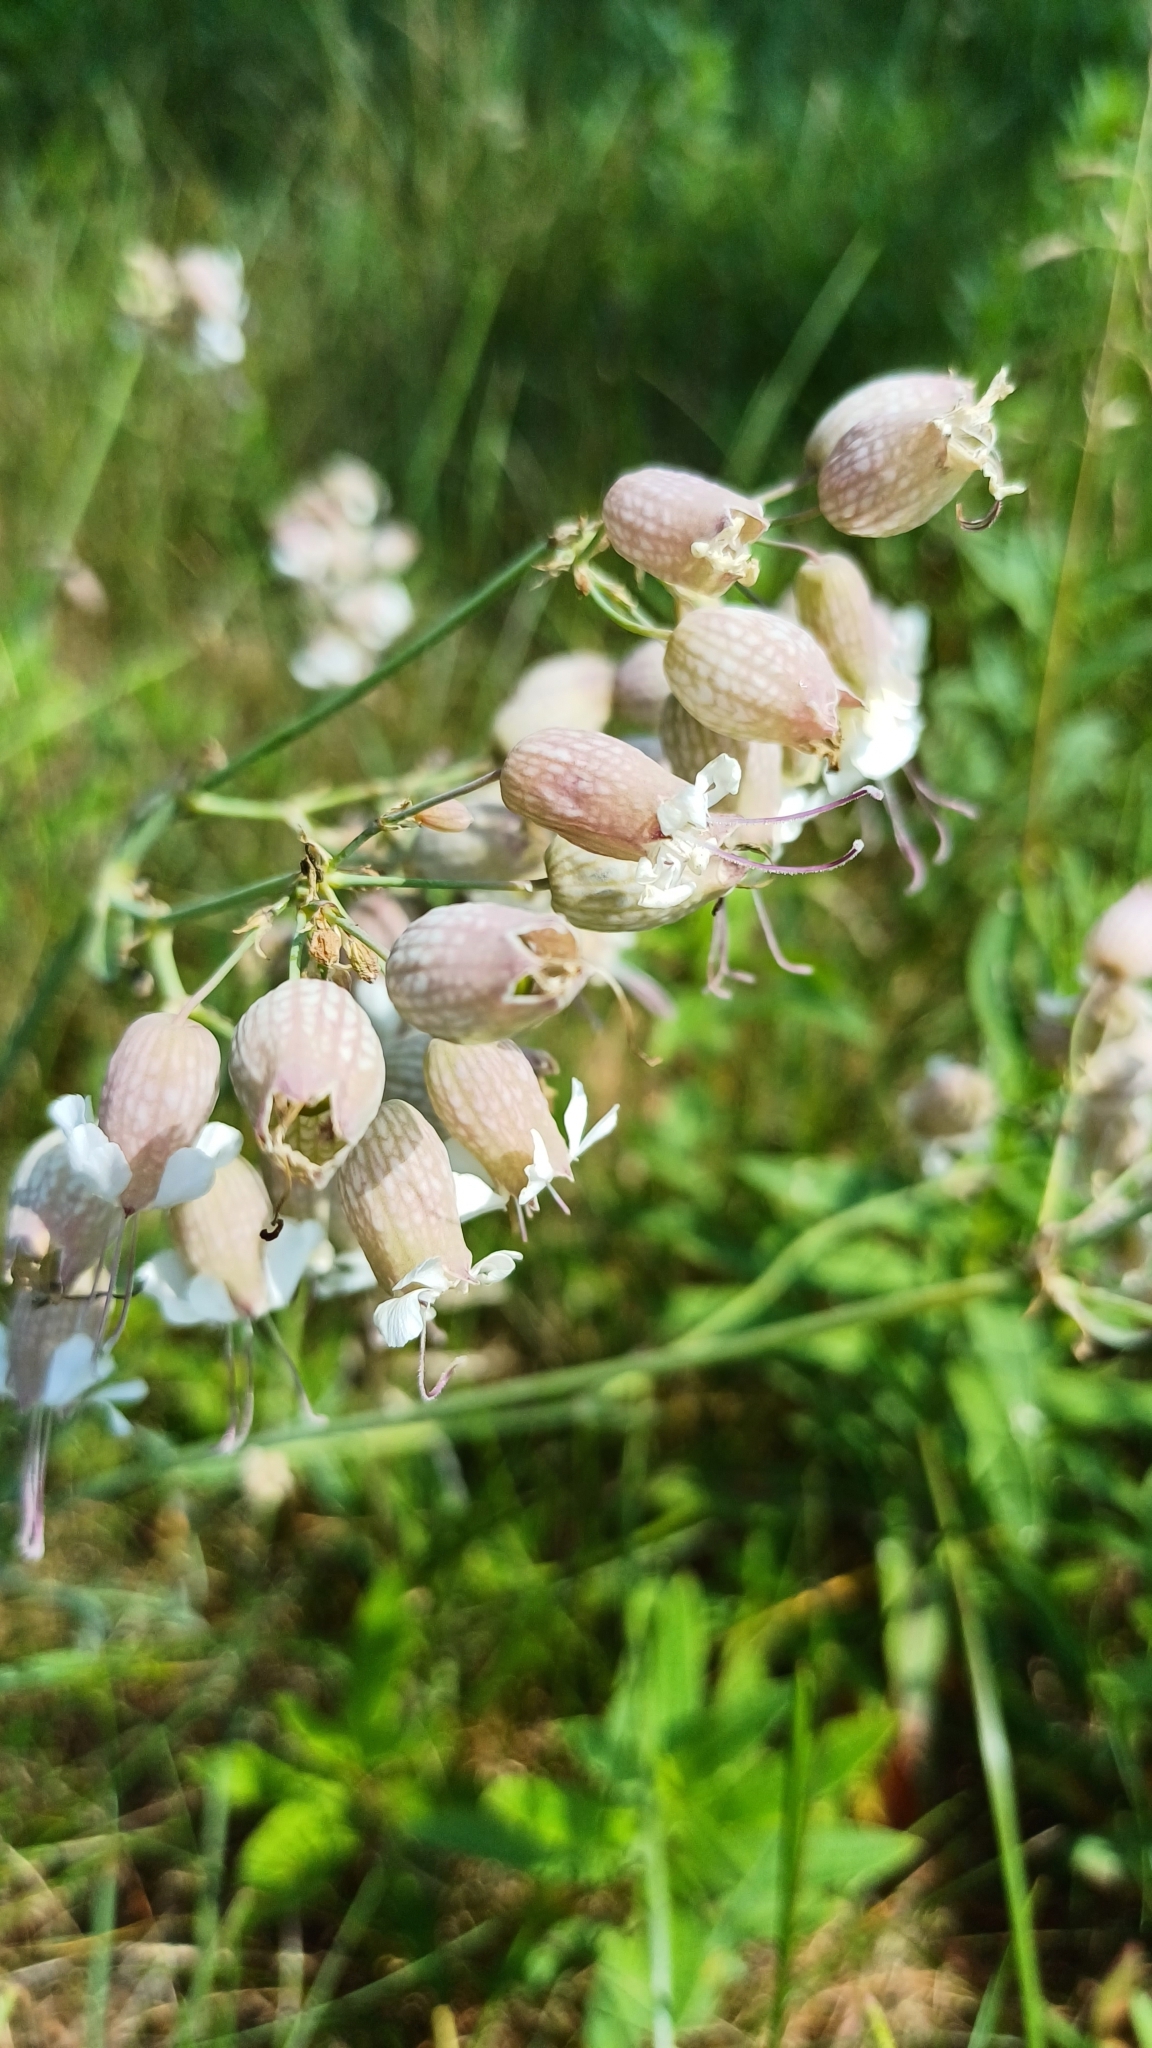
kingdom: Plantae
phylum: Tracheophyta
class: Magnoliopsida
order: Caryophyllales
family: Caryophyllaceae
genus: Silene
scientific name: Silene vulgaris
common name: Bladder campion
